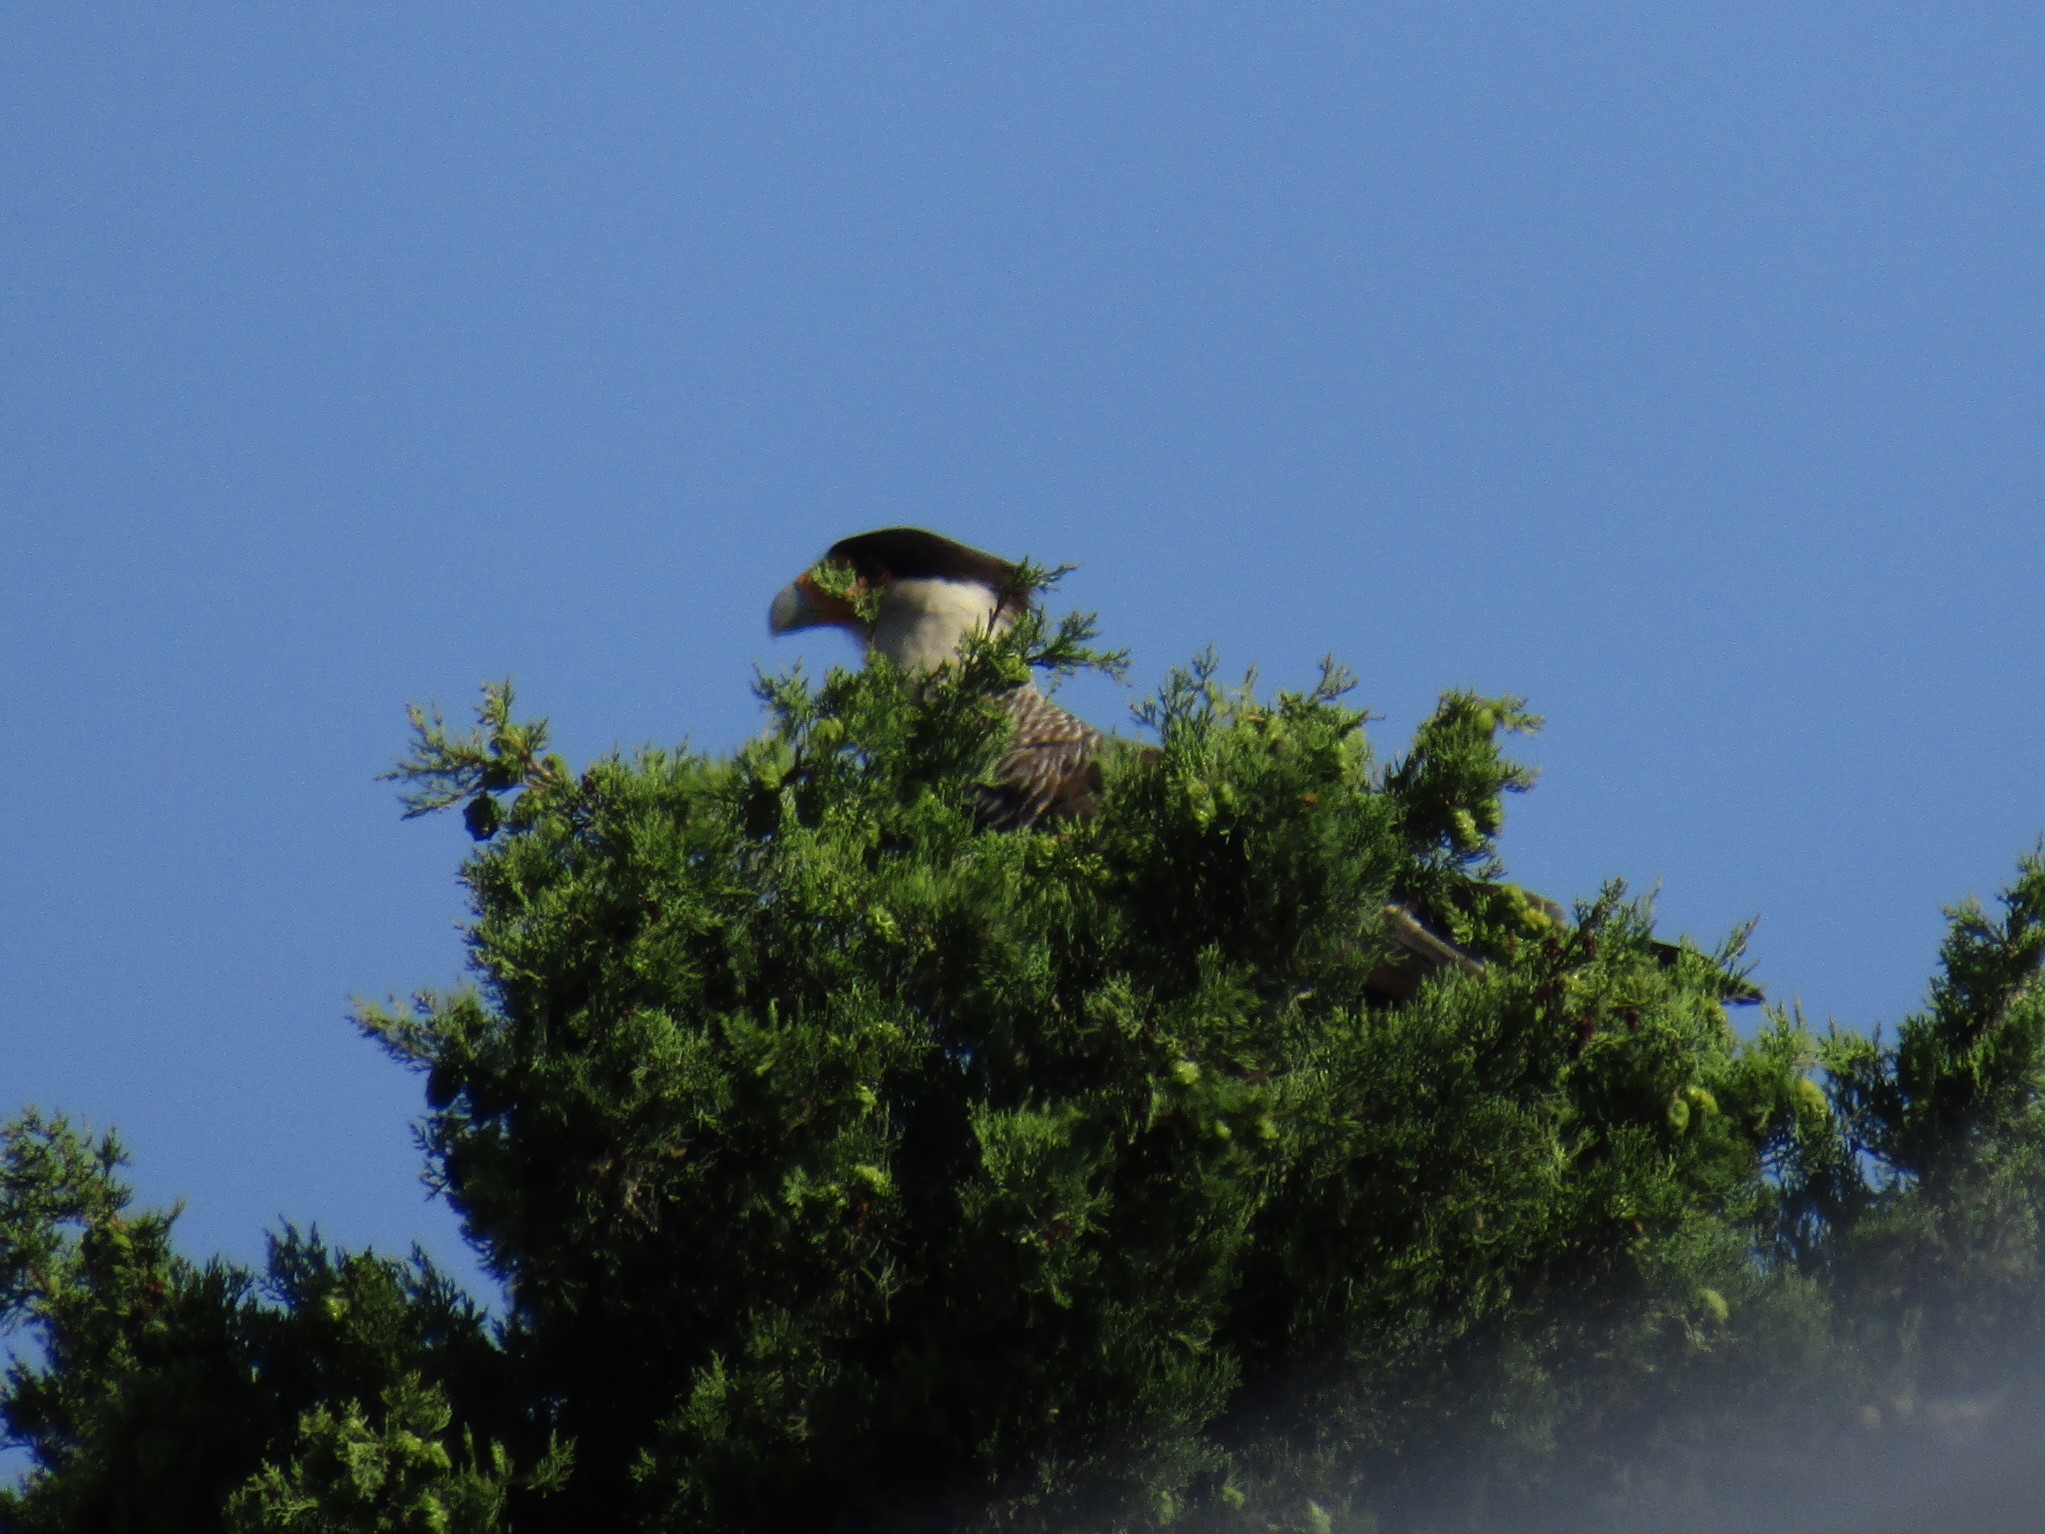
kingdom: Animalia
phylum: Chordata
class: Aves
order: Falconiformes
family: Falconidae
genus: Caracara
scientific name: Caracara plancus
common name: Southern caracara
